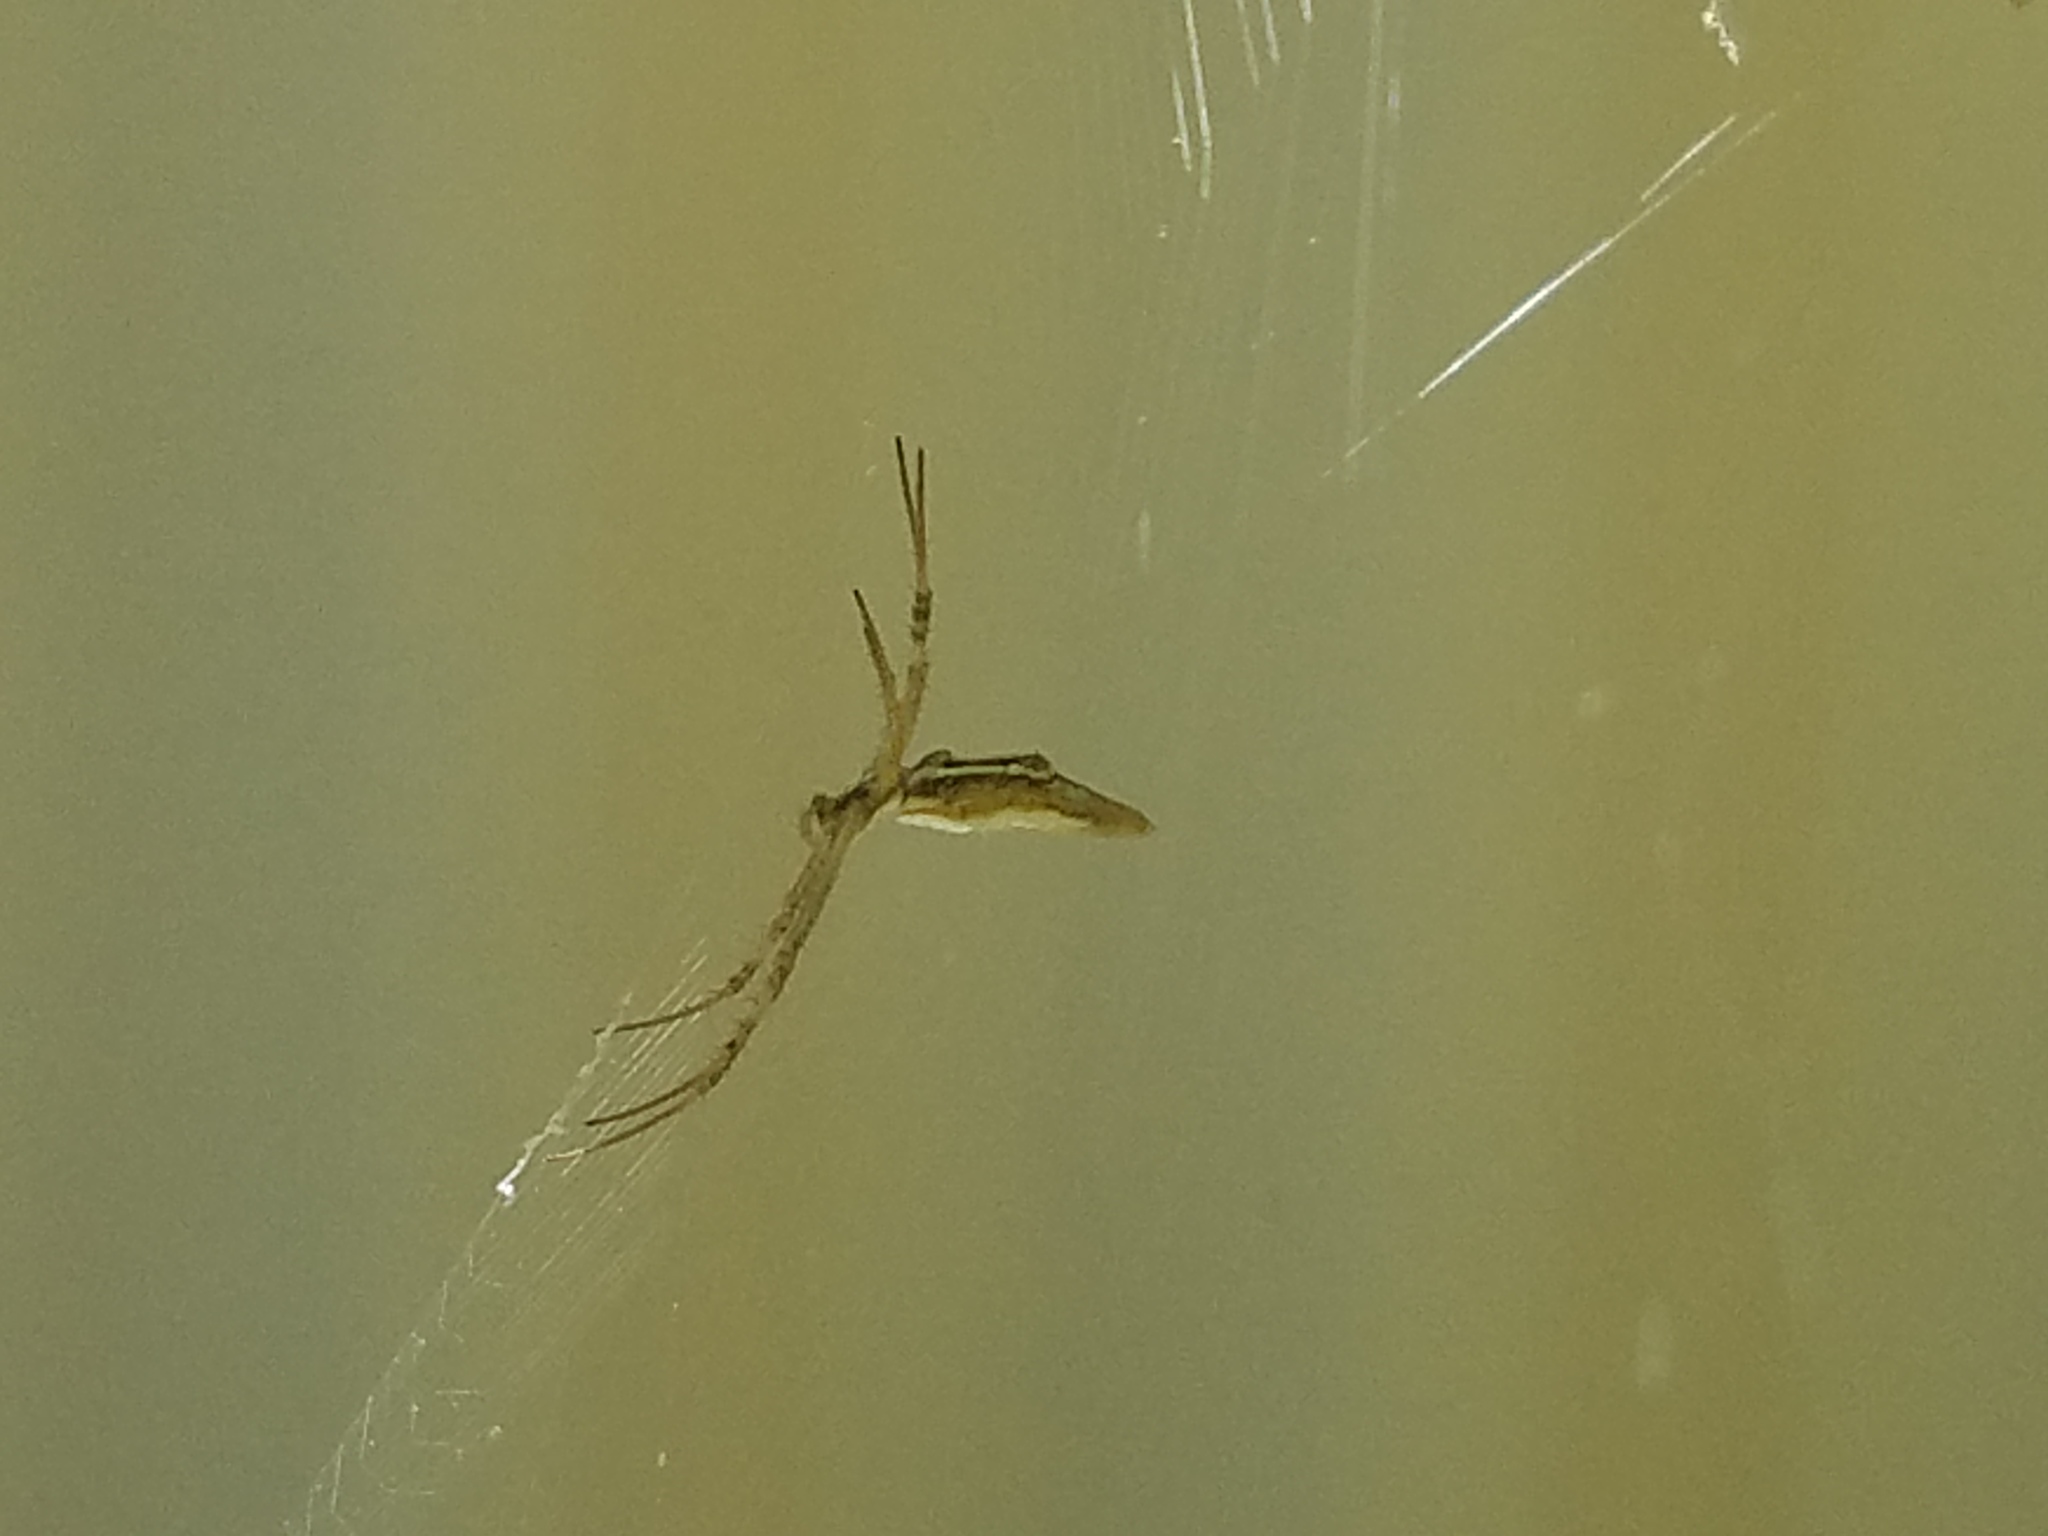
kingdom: Animalia
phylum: Arthropoda
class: Arachnida
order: Araneae
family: Araneidae
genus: Argiope
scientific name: Argiope protensa
